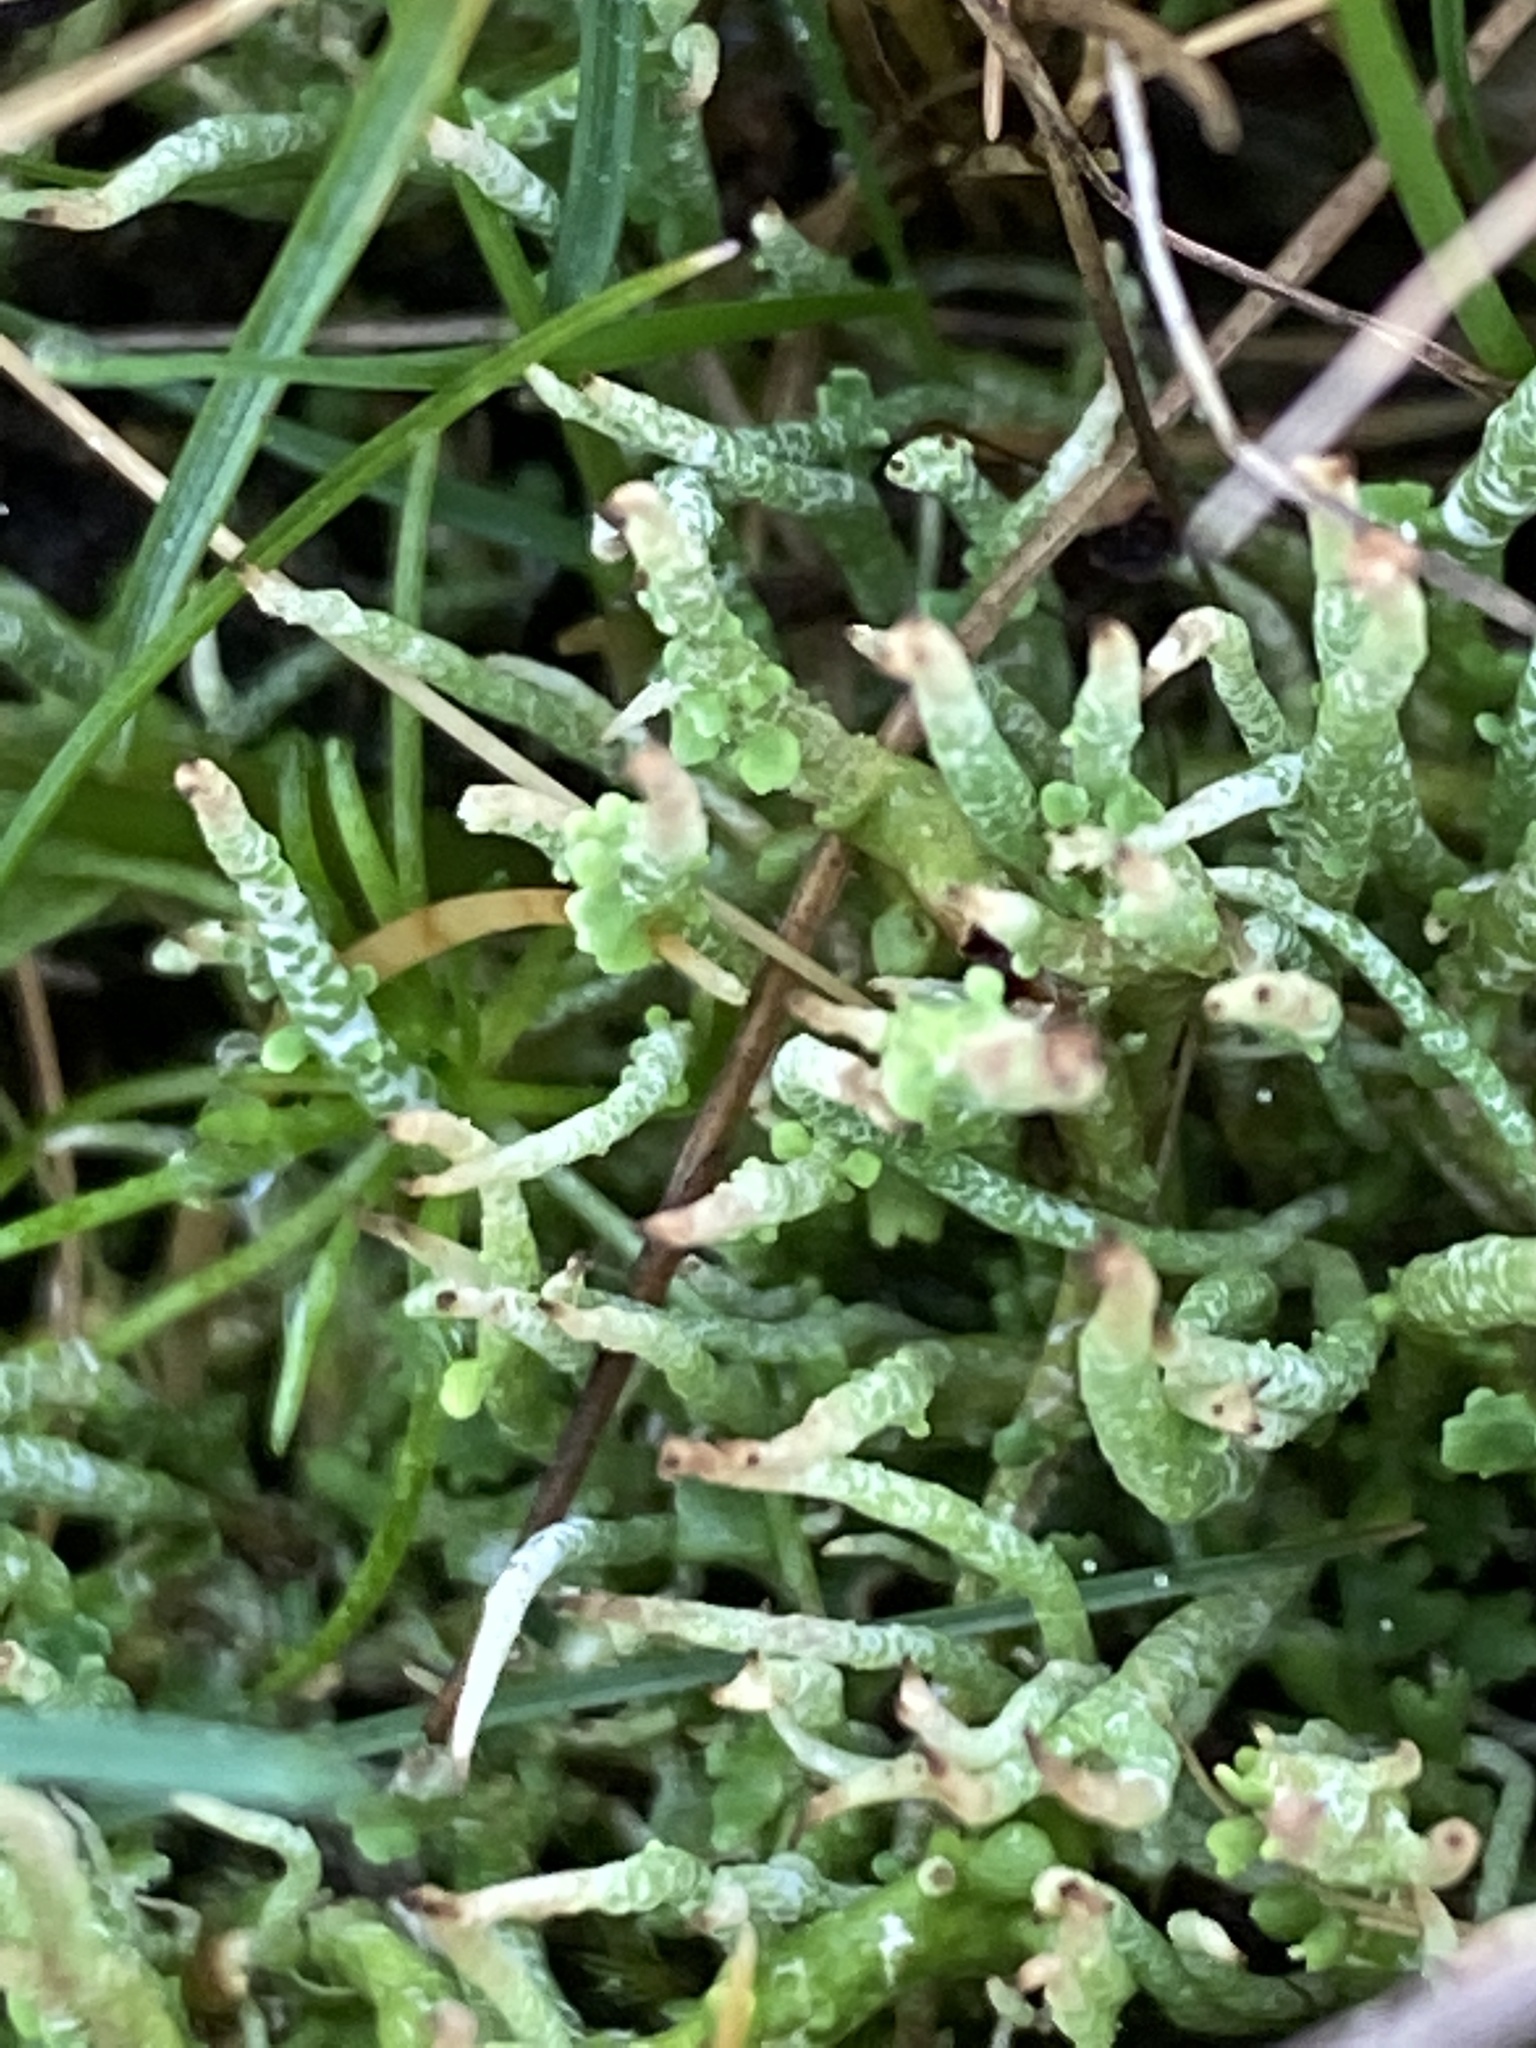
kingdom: Fungi
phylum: Ascomycota
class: Lecanoromycetes
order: Lecanorales
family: Cladoniaceae
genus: Cladonia
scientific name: Cladonia gracilis
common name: Smooth clad lichen
